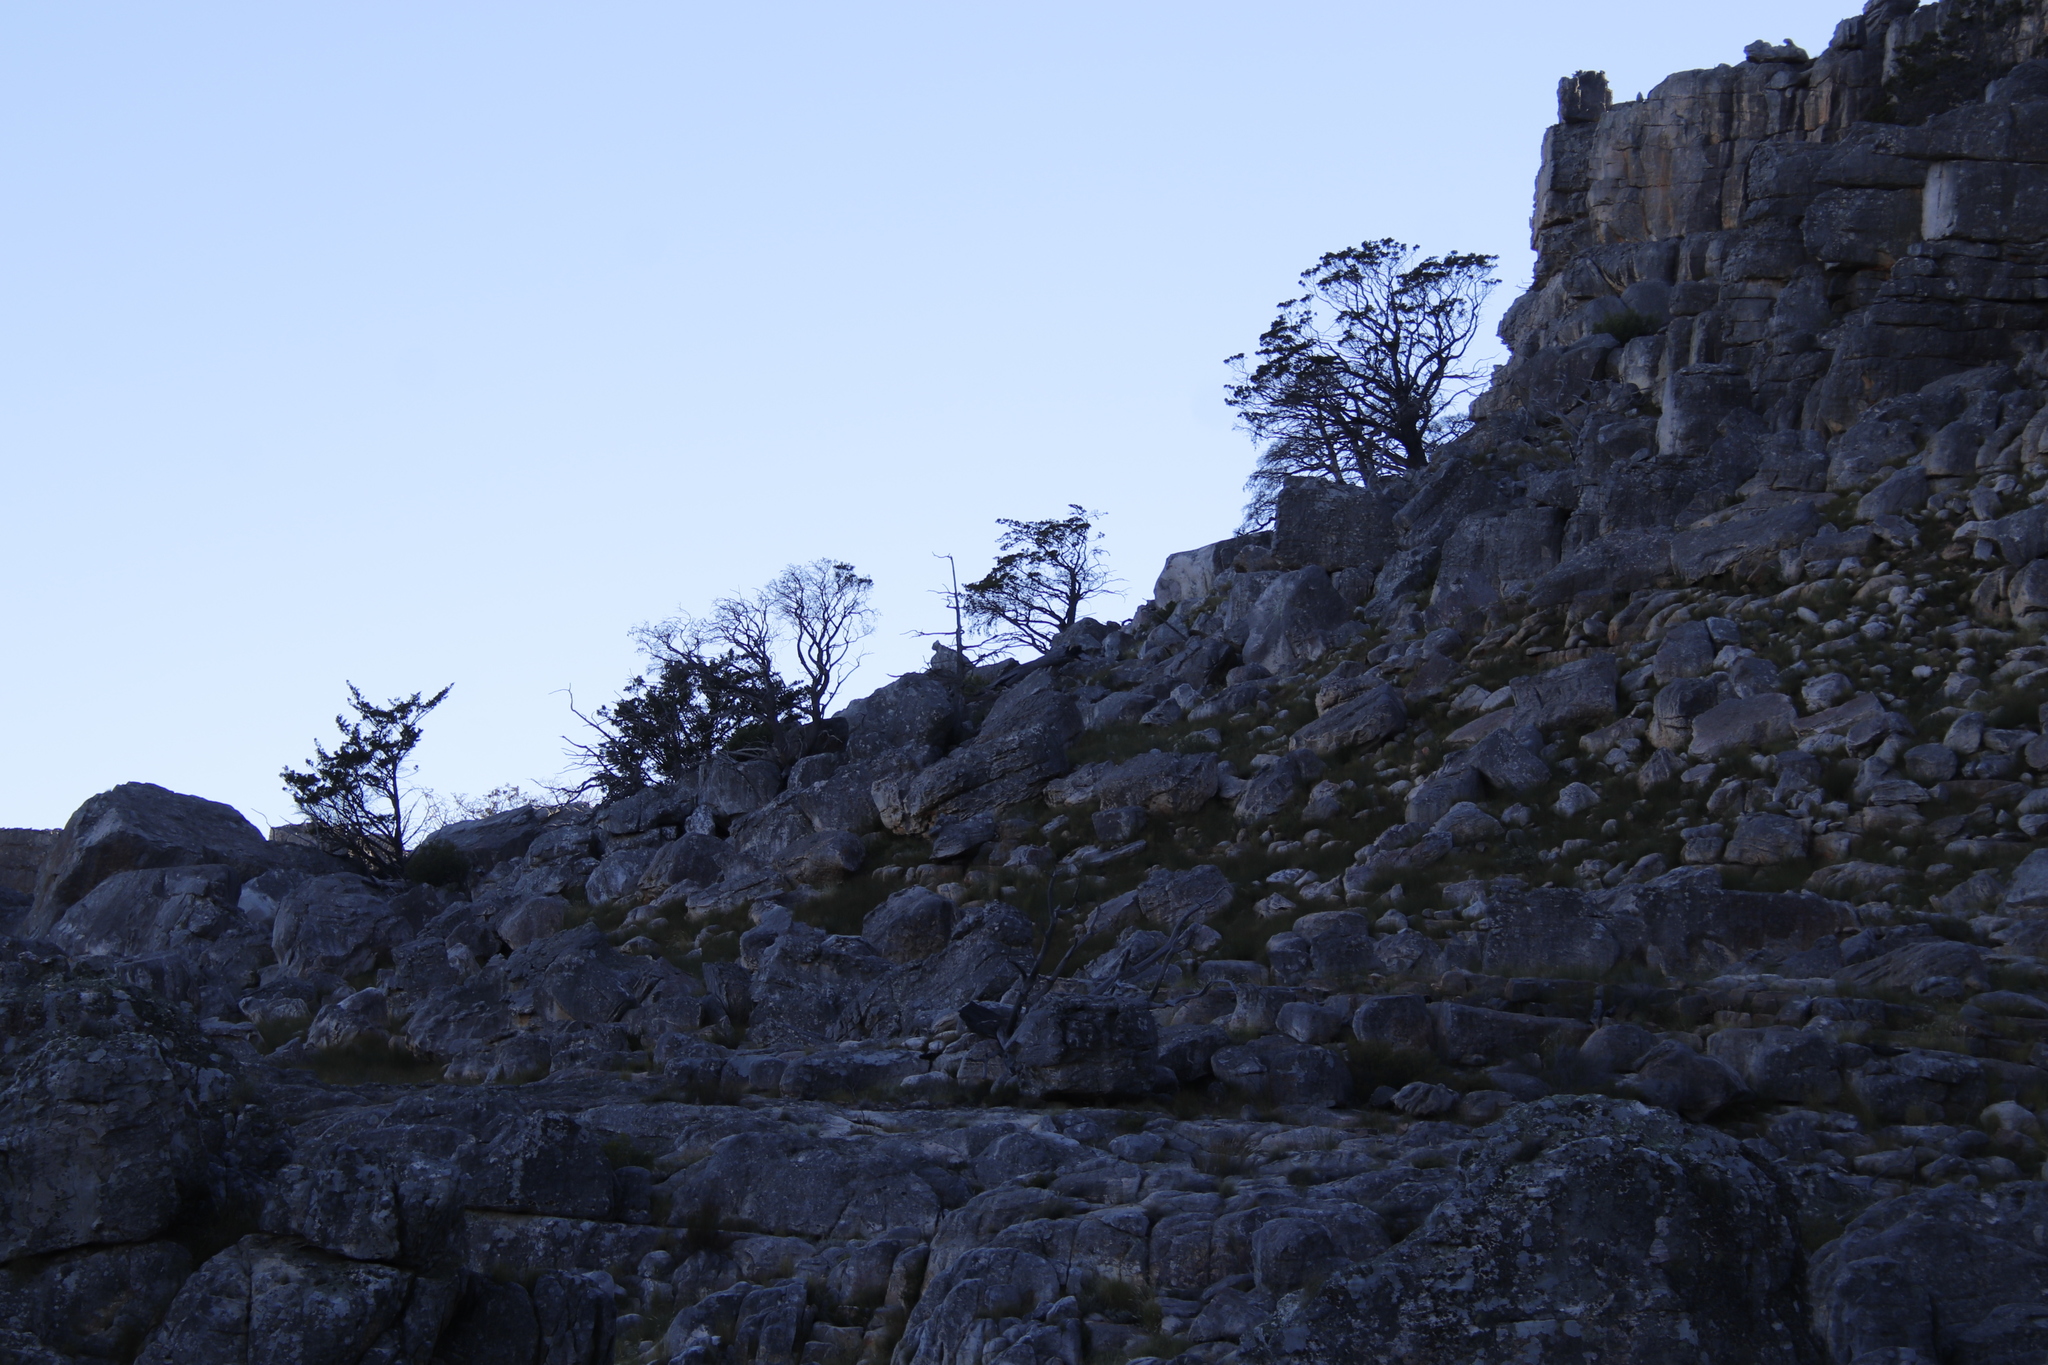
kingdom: Plantae
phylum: Tracheophyta
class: Pinopsida
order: Pinales
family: Cupressaceae
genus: Widdringtonia
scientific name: Widdringtonia nodiflora
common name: Cape cypress
